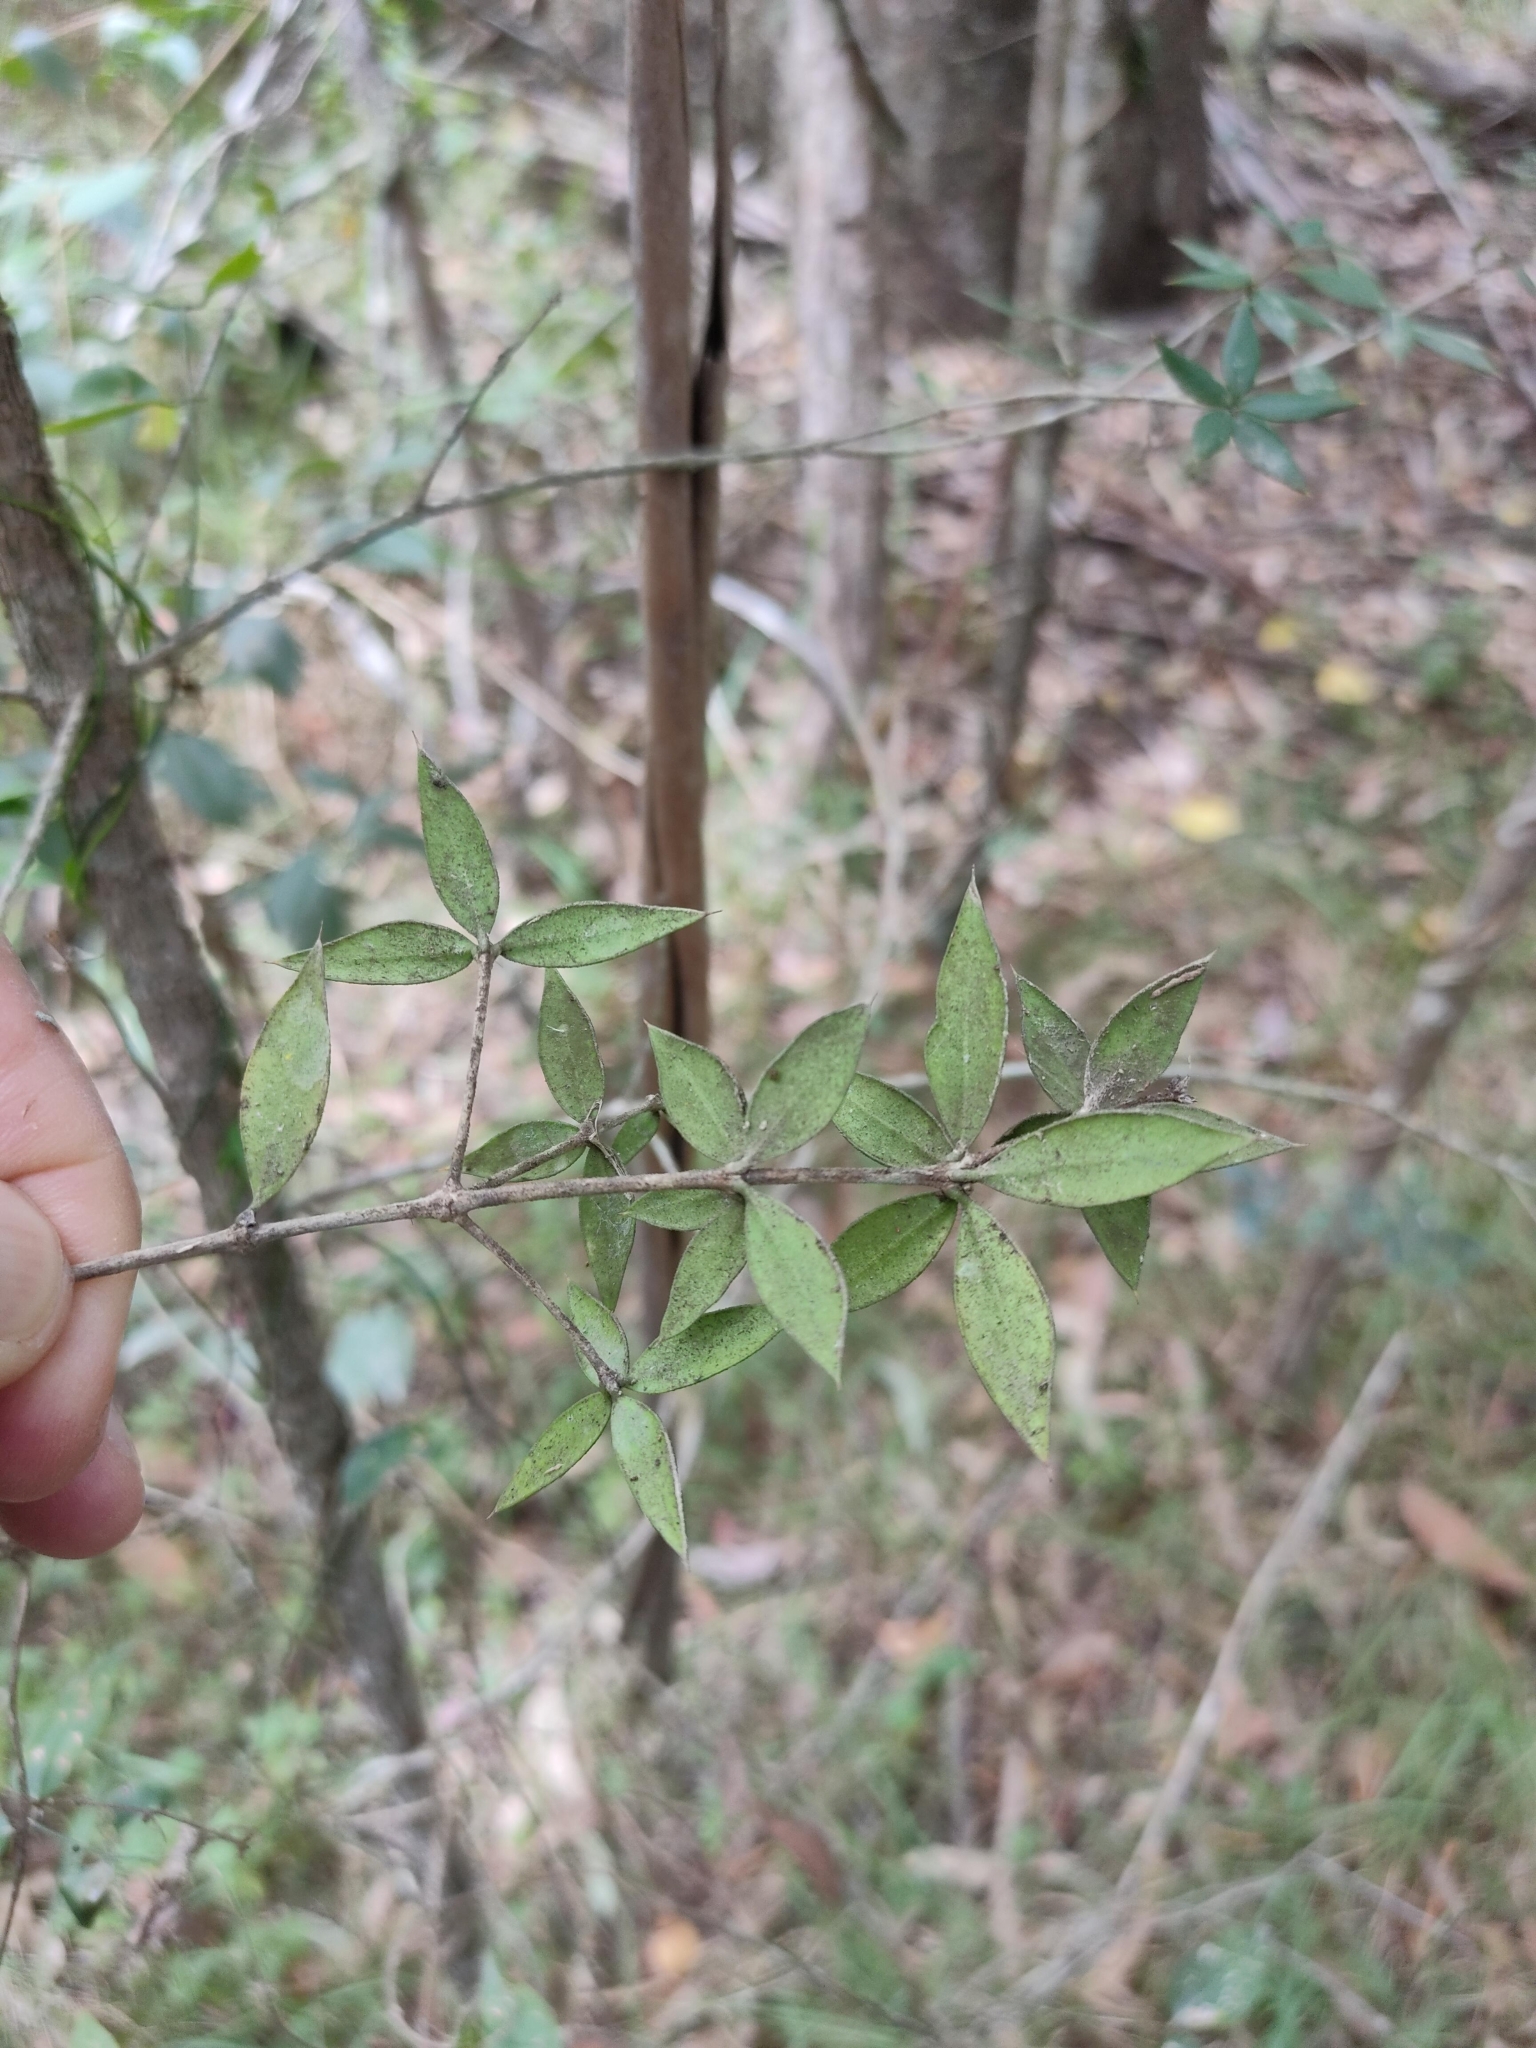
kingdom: Plantae
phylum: Tracheophyta
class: Magnoliopsida
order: Gentianales
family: Apocynaceae
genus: Alyxia
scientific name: Alyxia ruscifolia
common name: Chainfruit
